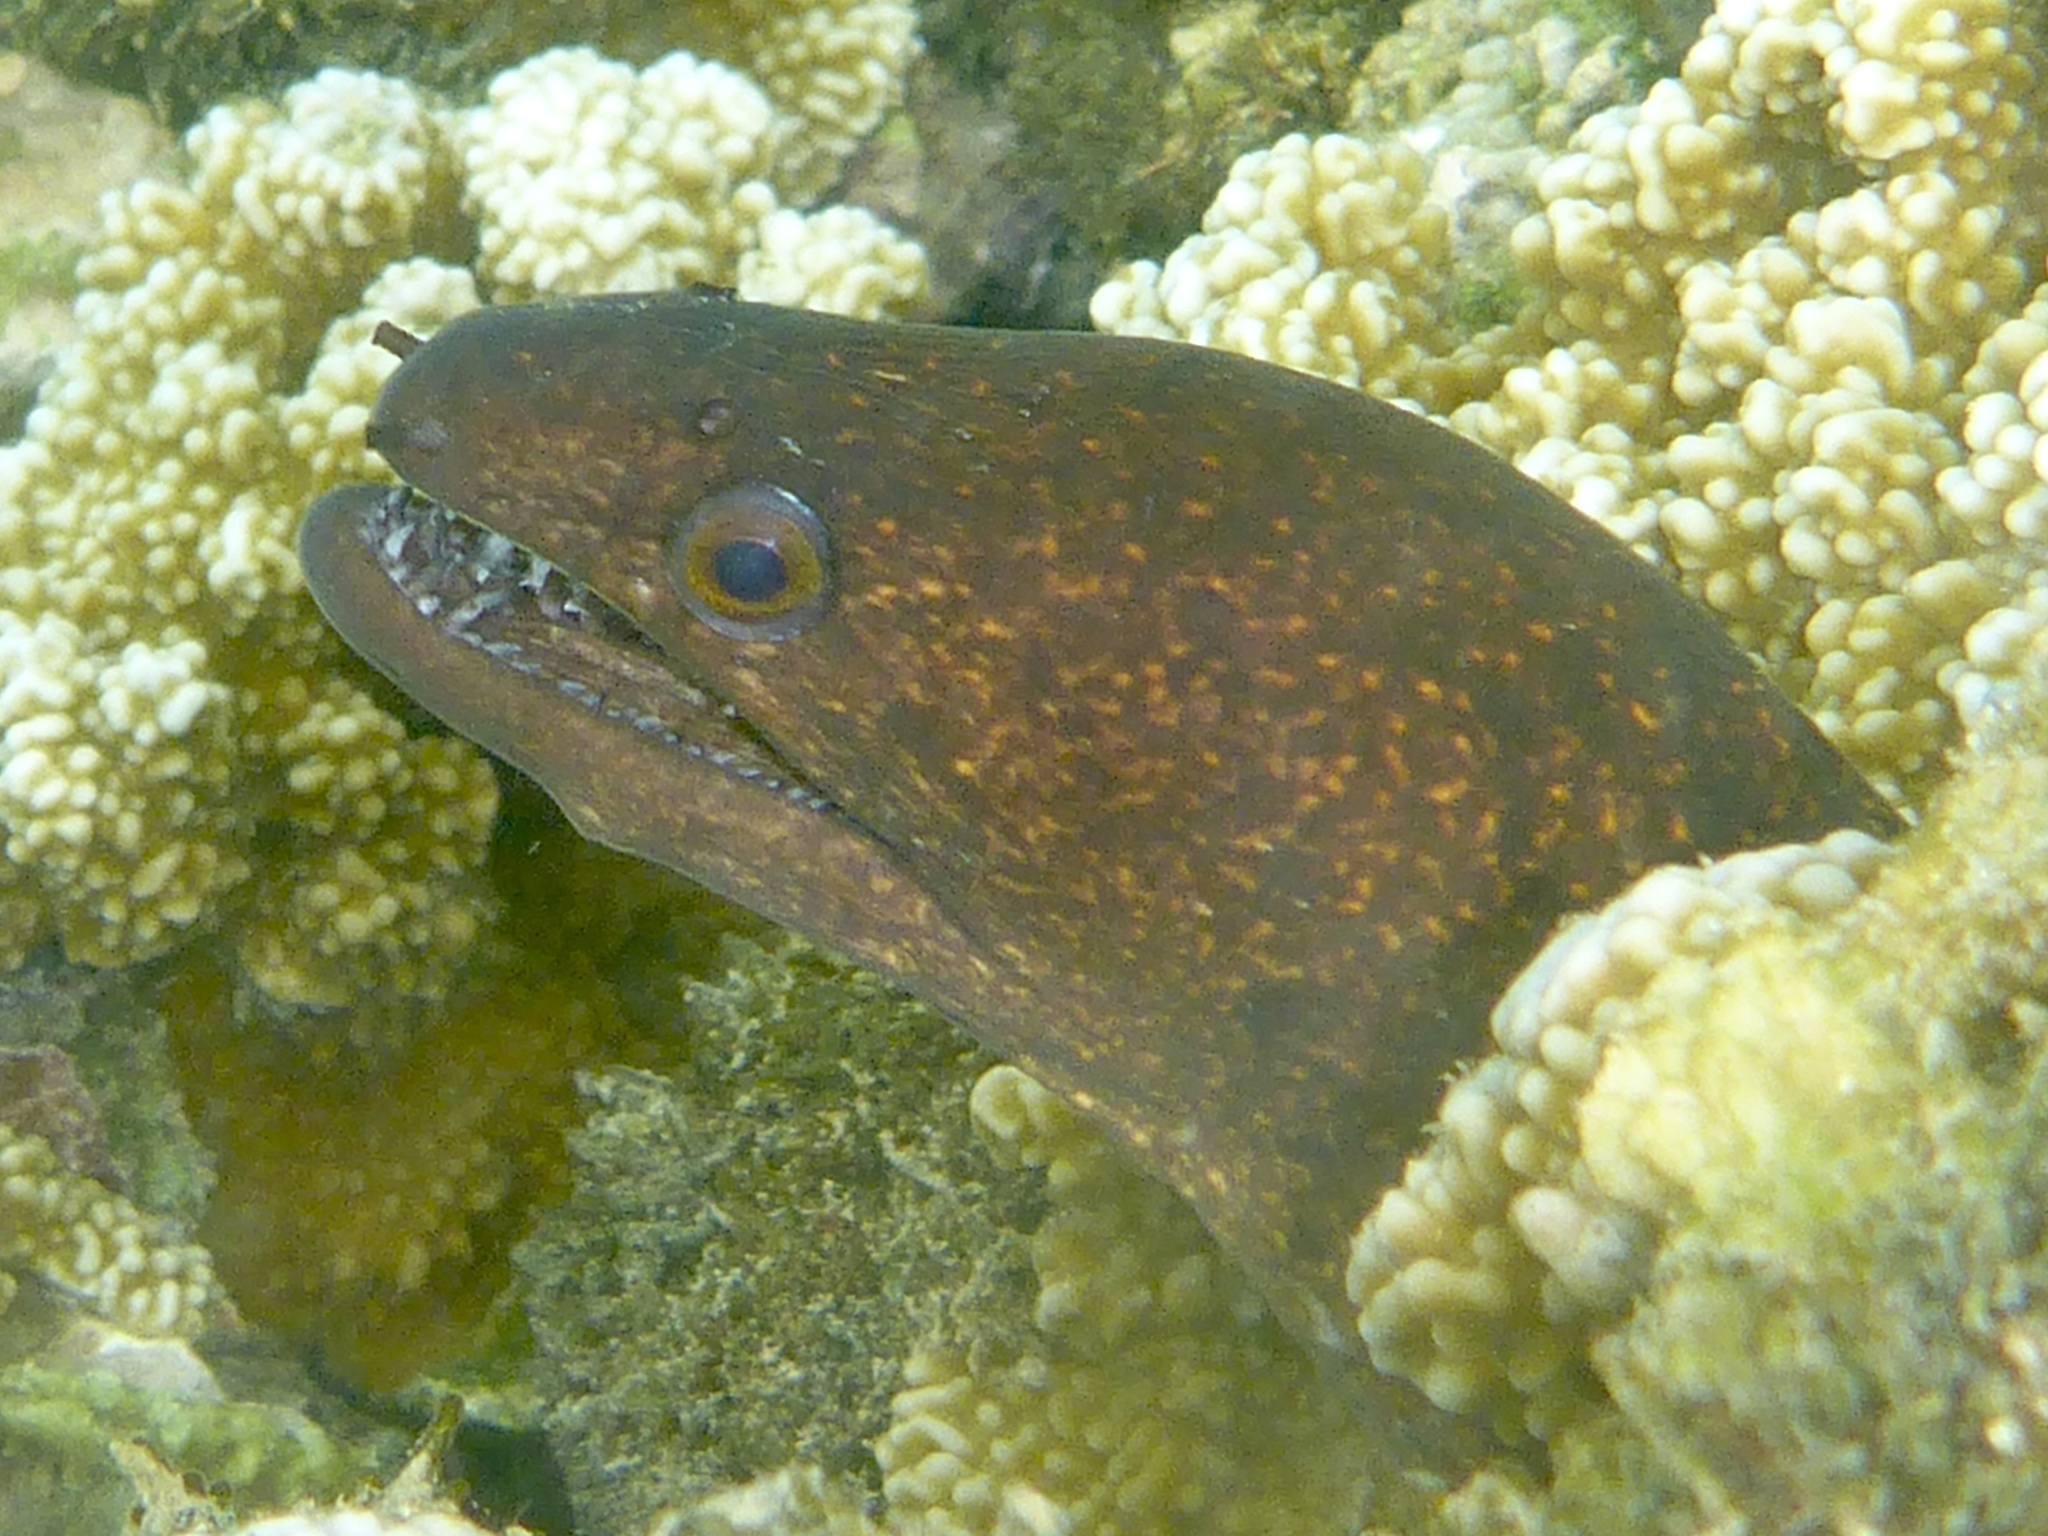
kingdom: Animalia
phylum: Chordata
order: Anguilliformes
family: Muraenidae
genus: Gymnothorax
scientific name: Gymnothorax eurostus
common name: Stout moray
